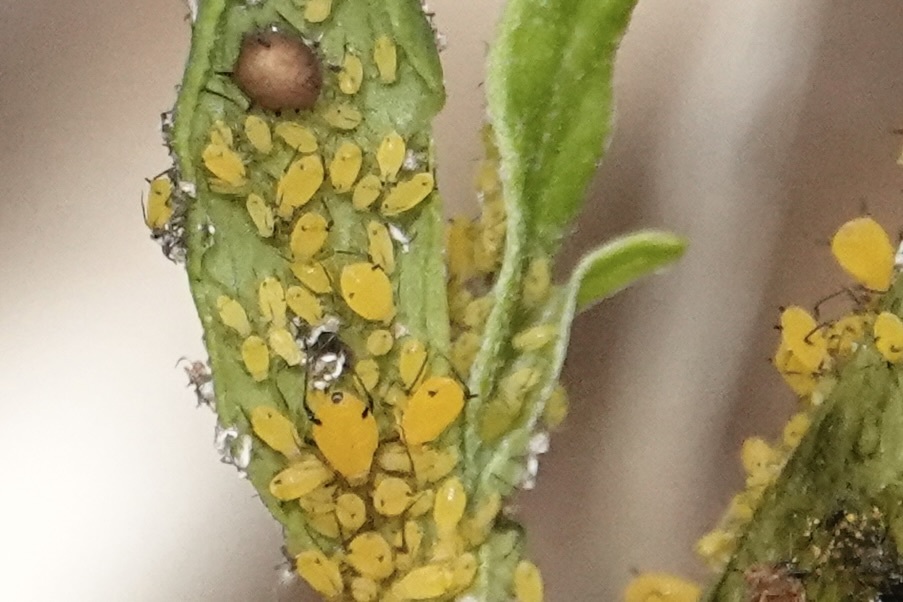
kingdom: Animalia
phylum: Arthropoda
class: Insecta
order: Hemiptera
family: Aphididae
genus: Aphis
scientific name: Aphis nerii
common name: Oleander aphid
